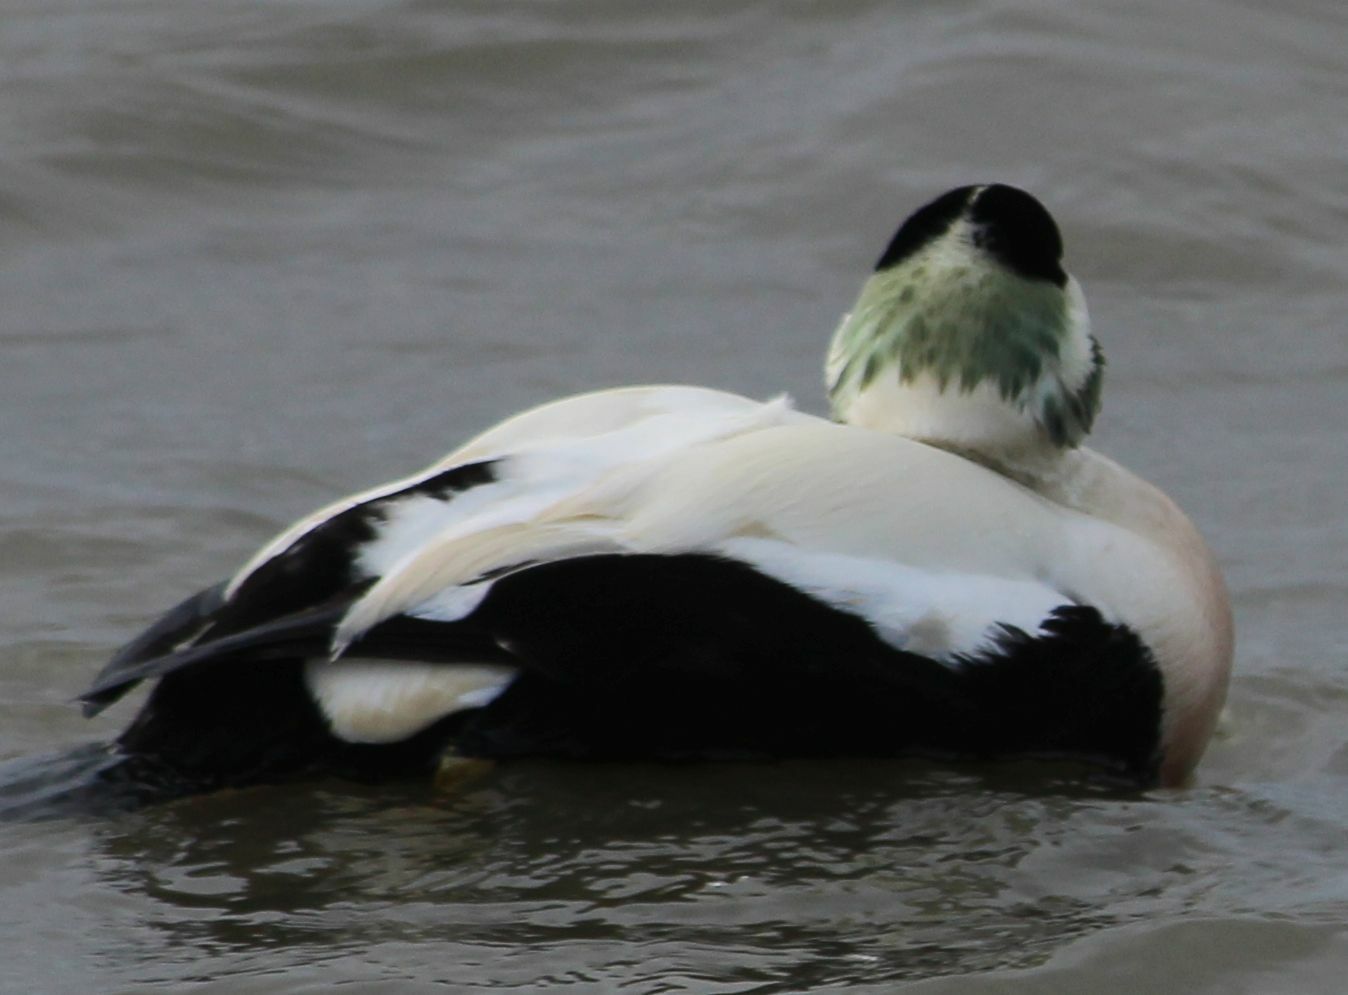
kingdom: Animalia
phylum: Chordata
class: Aves
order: Anseriformes
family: Anatidae
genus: Somateria
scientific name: Somateria mollissima
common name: Common eider
